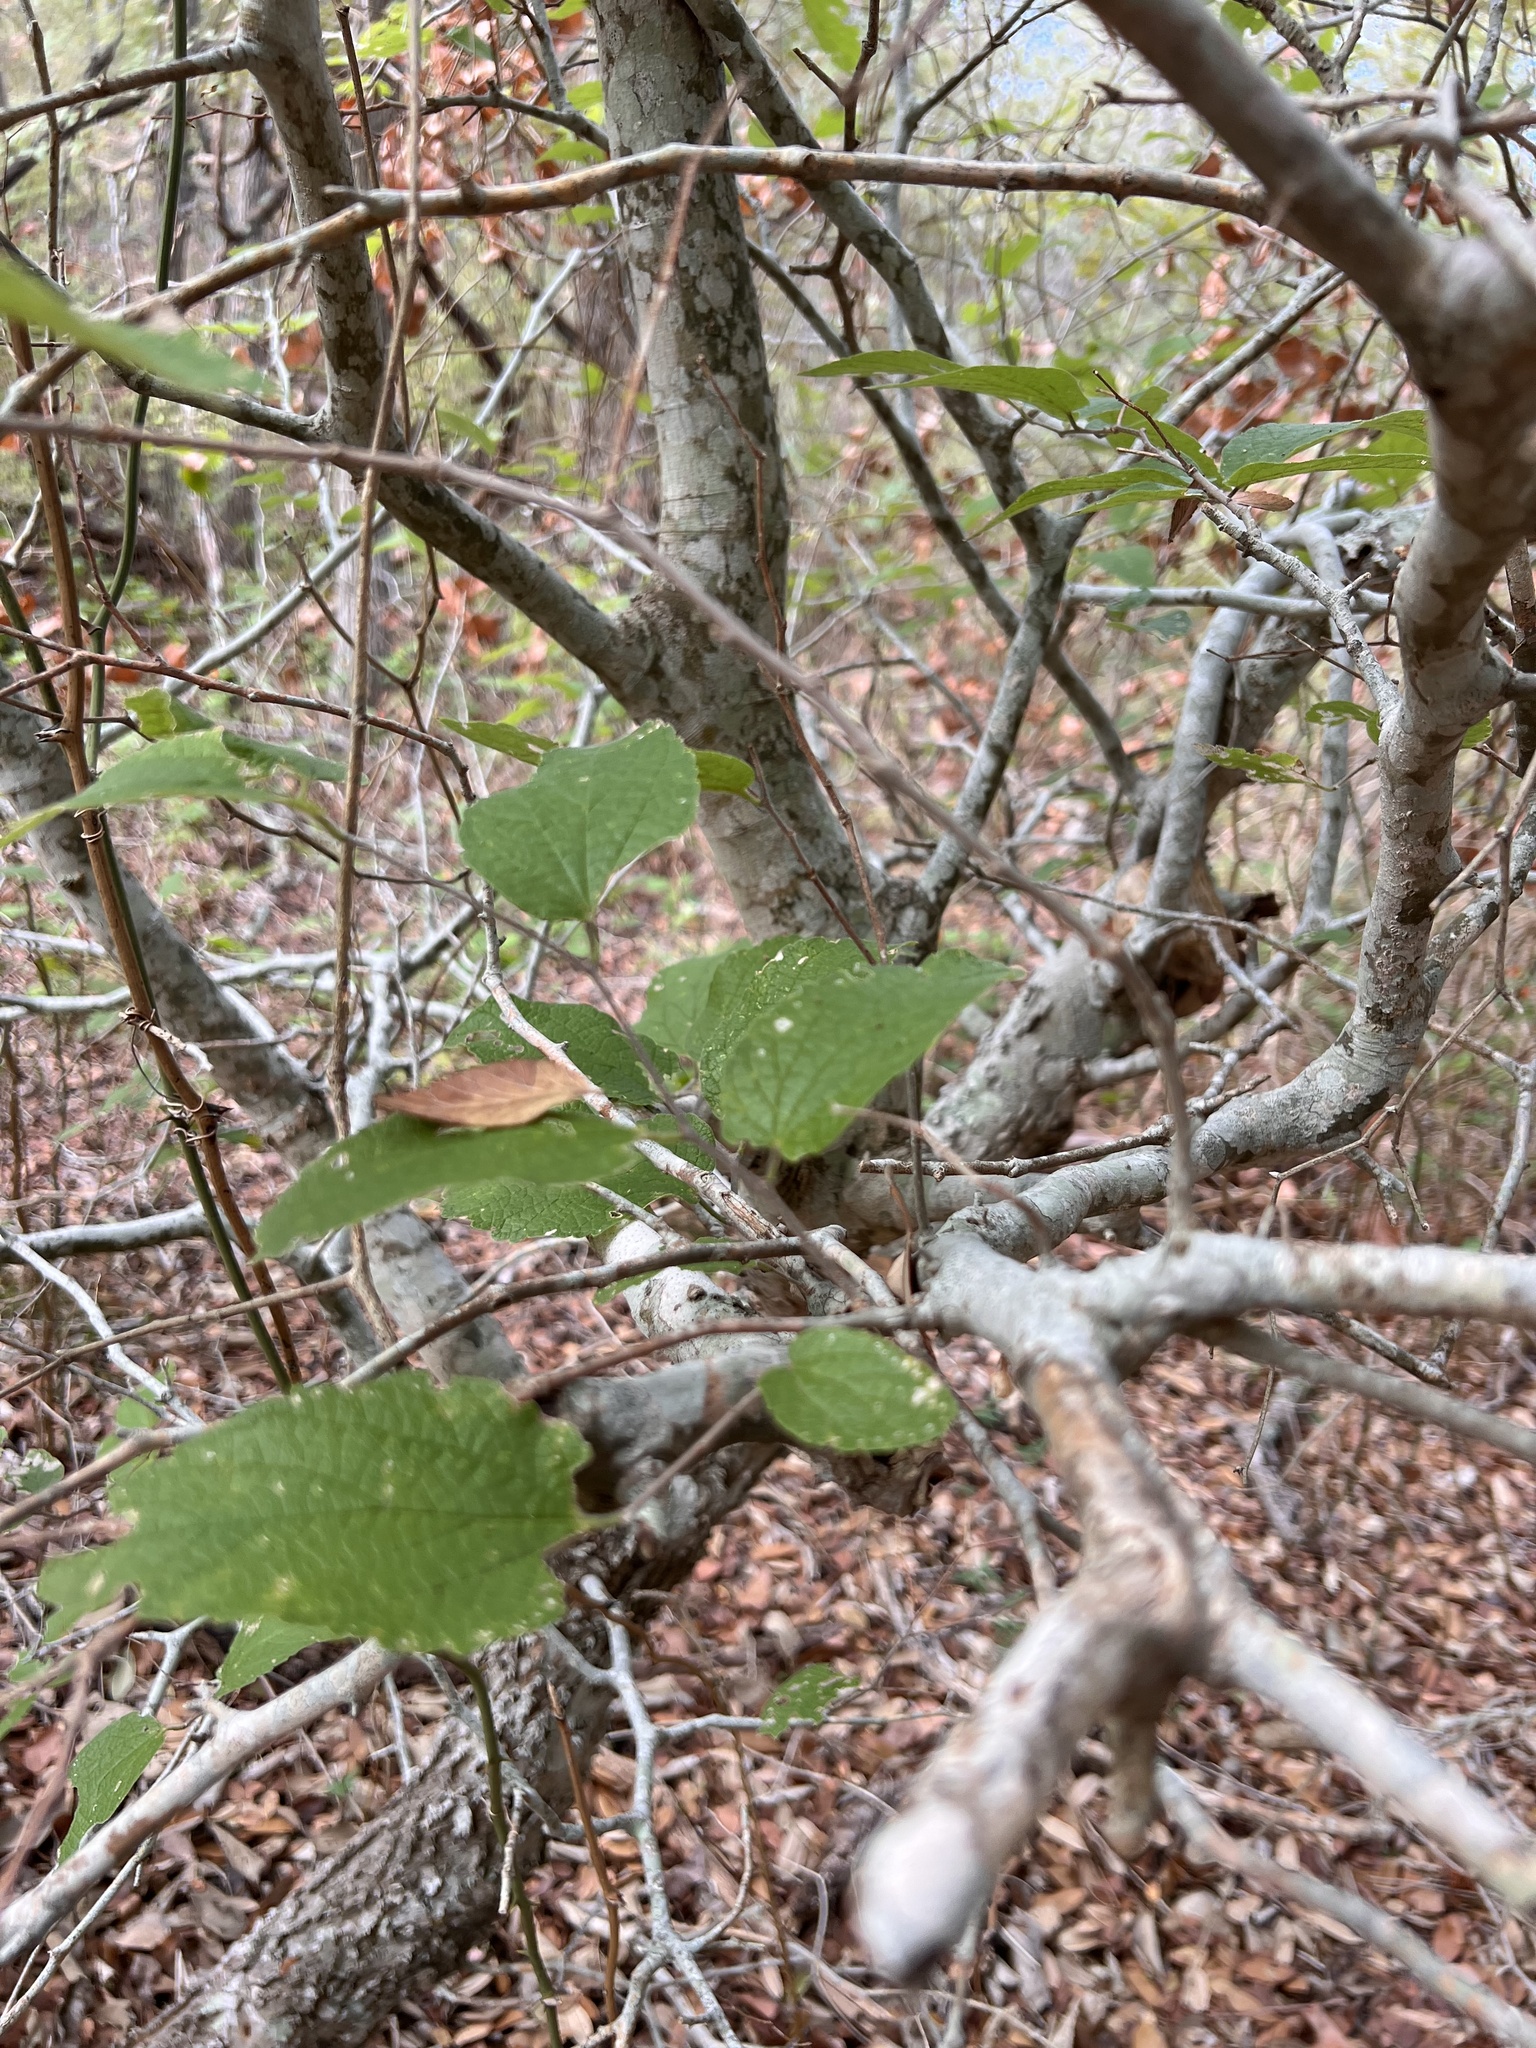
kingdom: Plantae
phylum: Tracheophyta
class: Magnoliopsida
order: Rosales
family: Cannabaceae
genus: Celtis
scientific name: Celtis reticulata
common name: Netleaf hackberry
